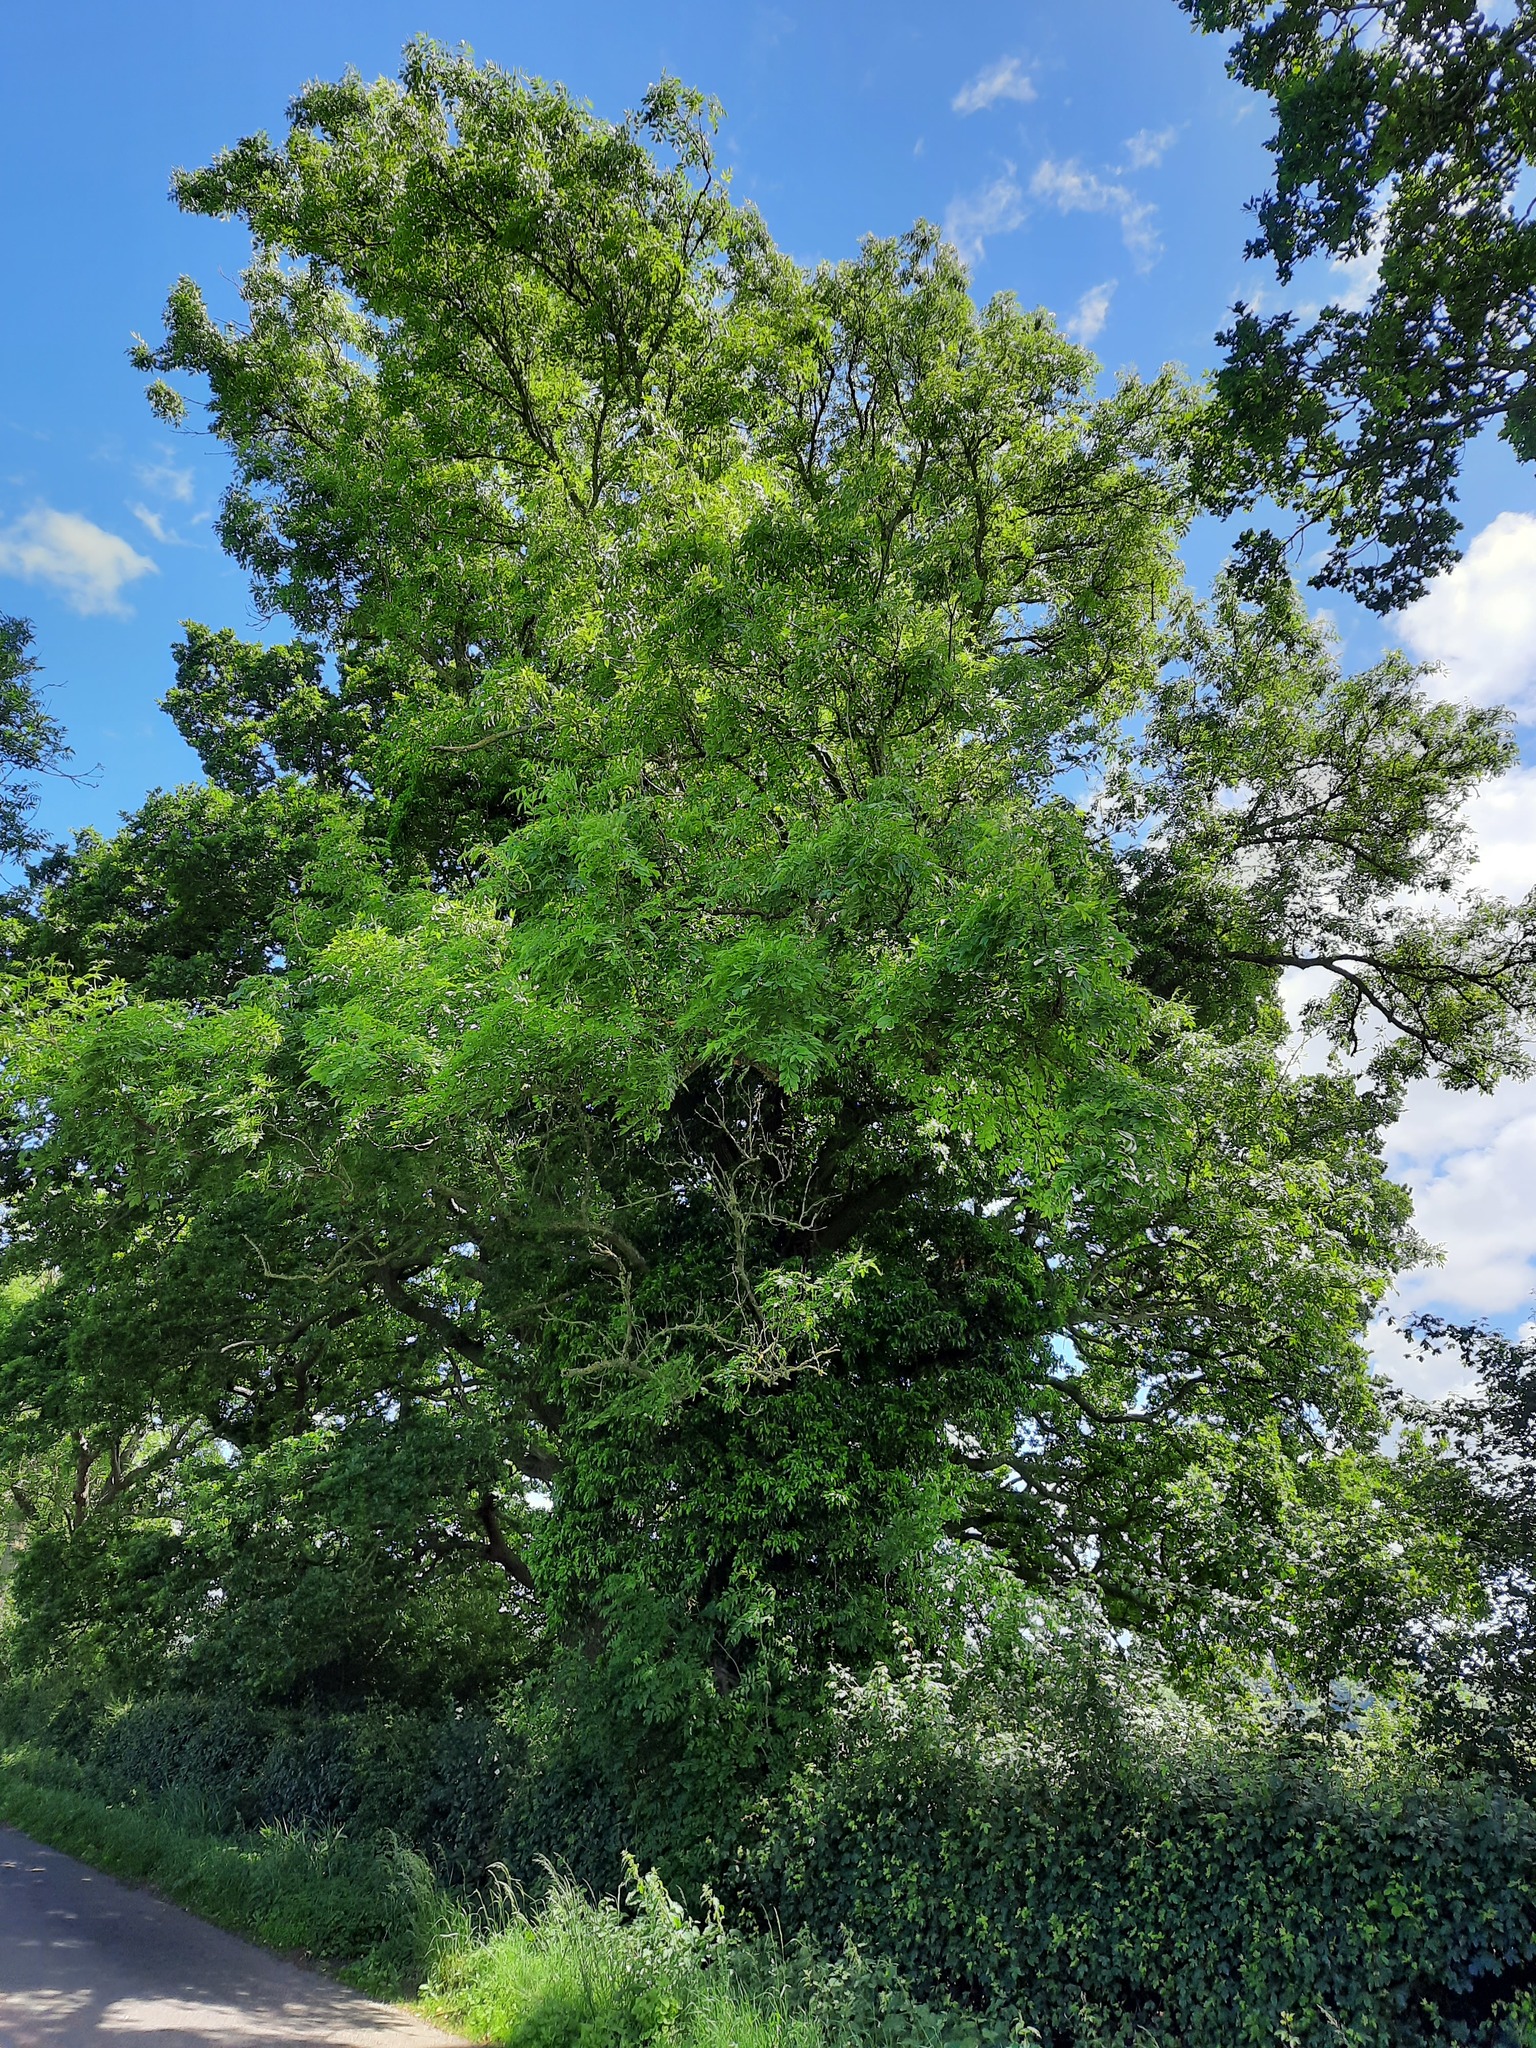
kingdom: Plantae
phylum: Tracheophyta
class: Magnoliopsida
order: Lamiales
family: Oleaceae
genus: Fraxinus
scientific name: Fraxinus excelsior
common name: European ash
